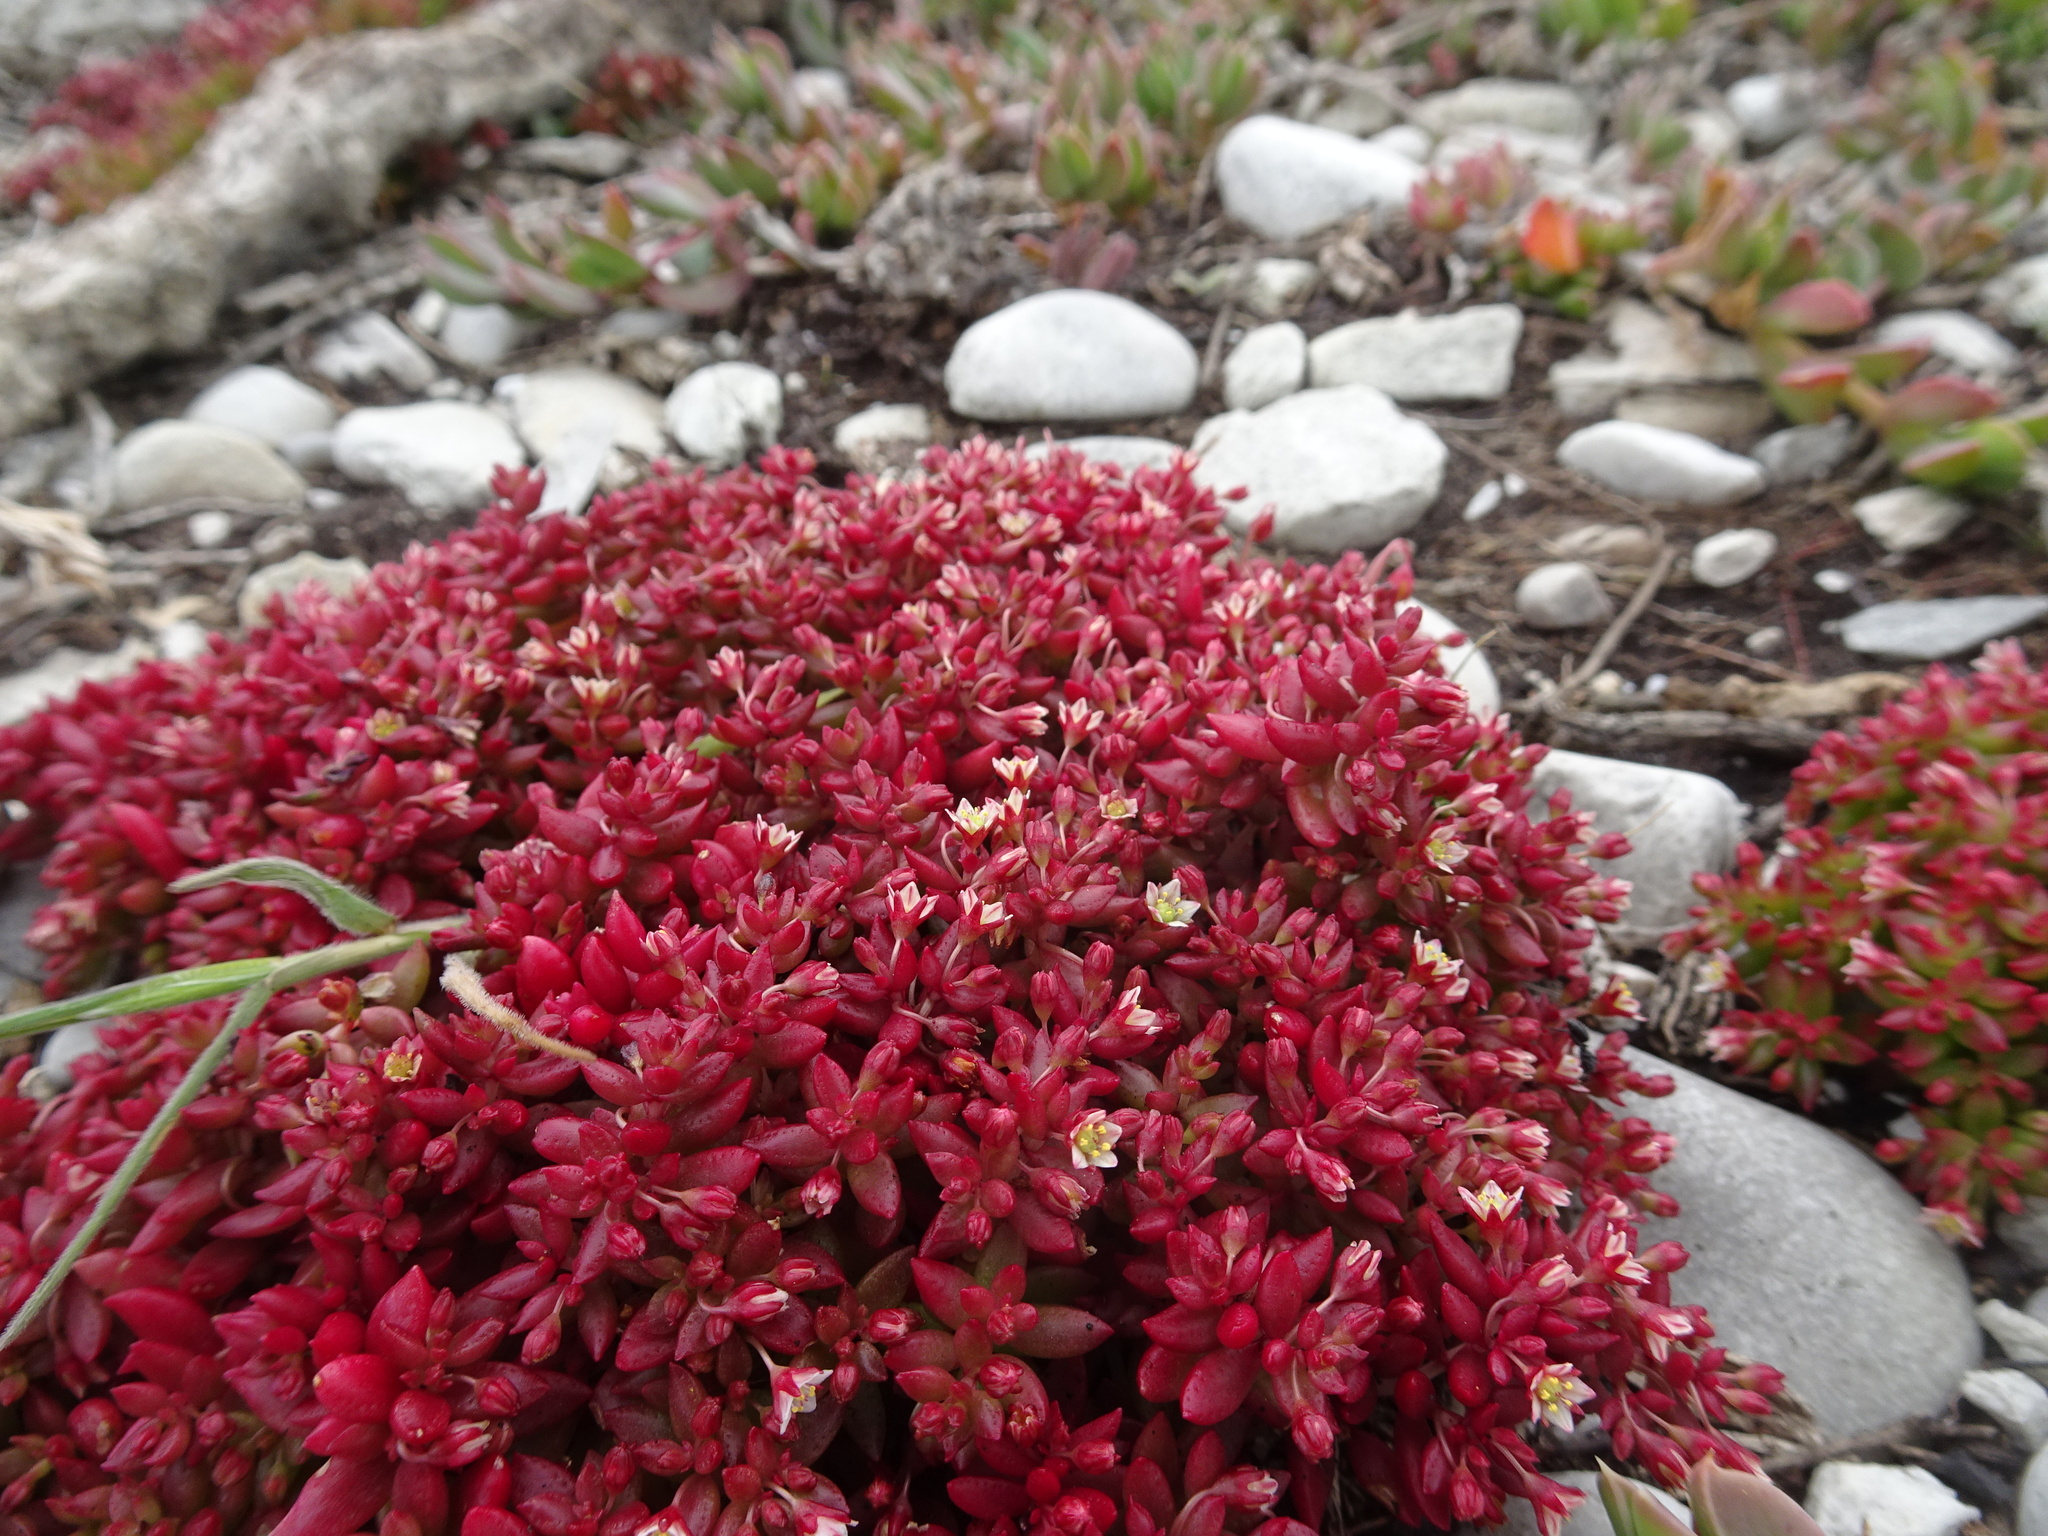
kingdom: Plantae
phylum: Tracheophyta
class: Magnoliopsida
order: Saxifragales
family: Crassulaceae
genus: Crassula
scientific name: Crassula expansa
